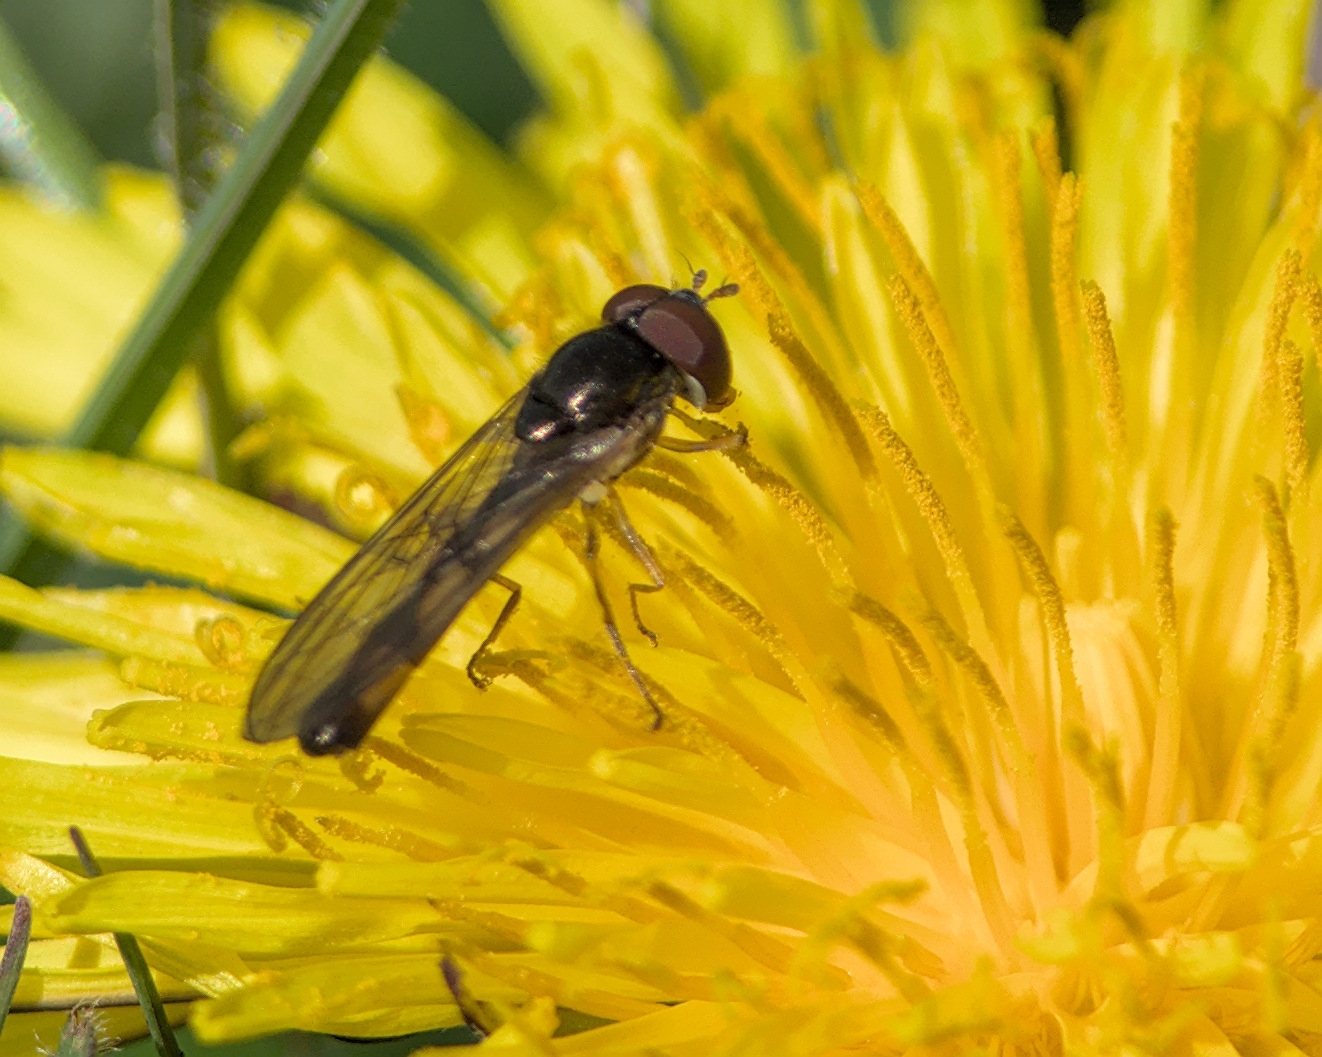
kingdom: Animalia
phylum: Arthropoda
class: Insecta
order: Diptera
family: Syrphidae
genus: Melanostoma
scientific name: Melanostoma scalare
